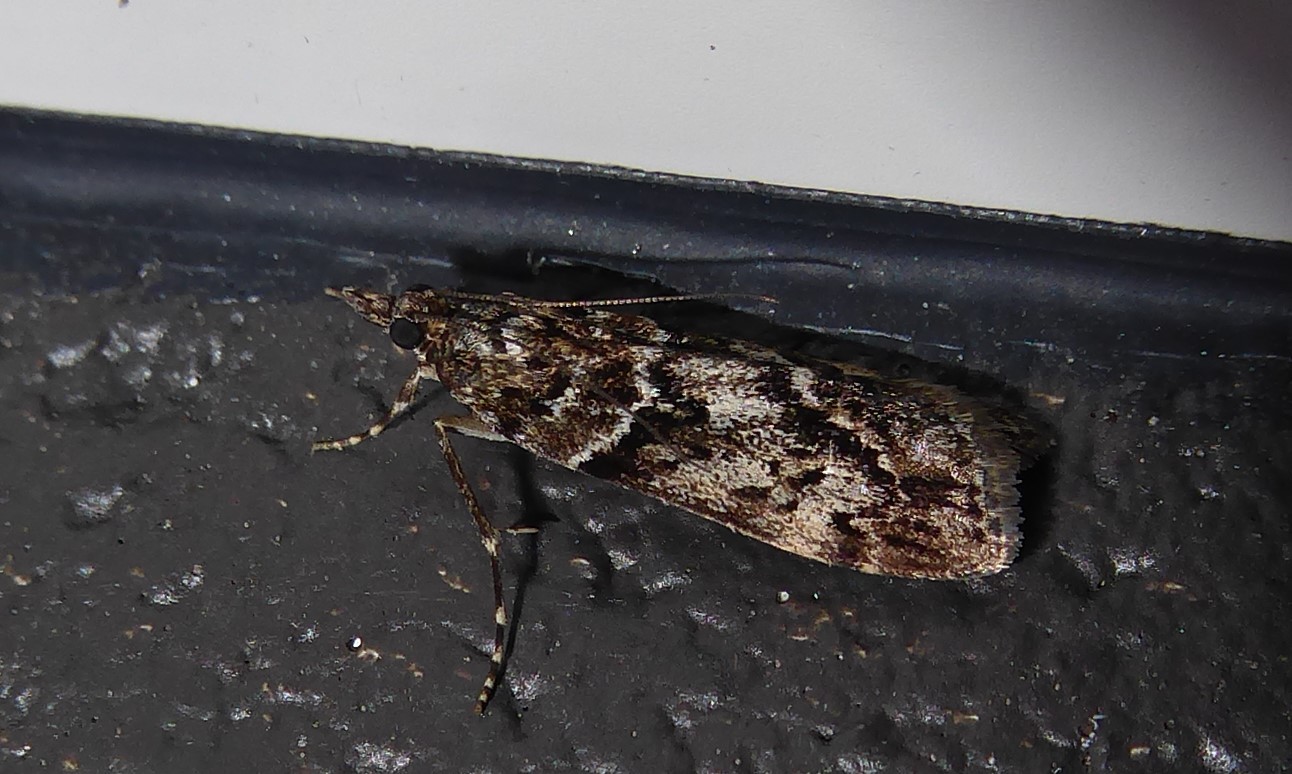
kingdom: Animalia
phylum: Arthropoda
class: Insecta
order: Lepidoptera
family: Crambidae
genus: Eudonia
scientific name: Eudonia submarginalis
